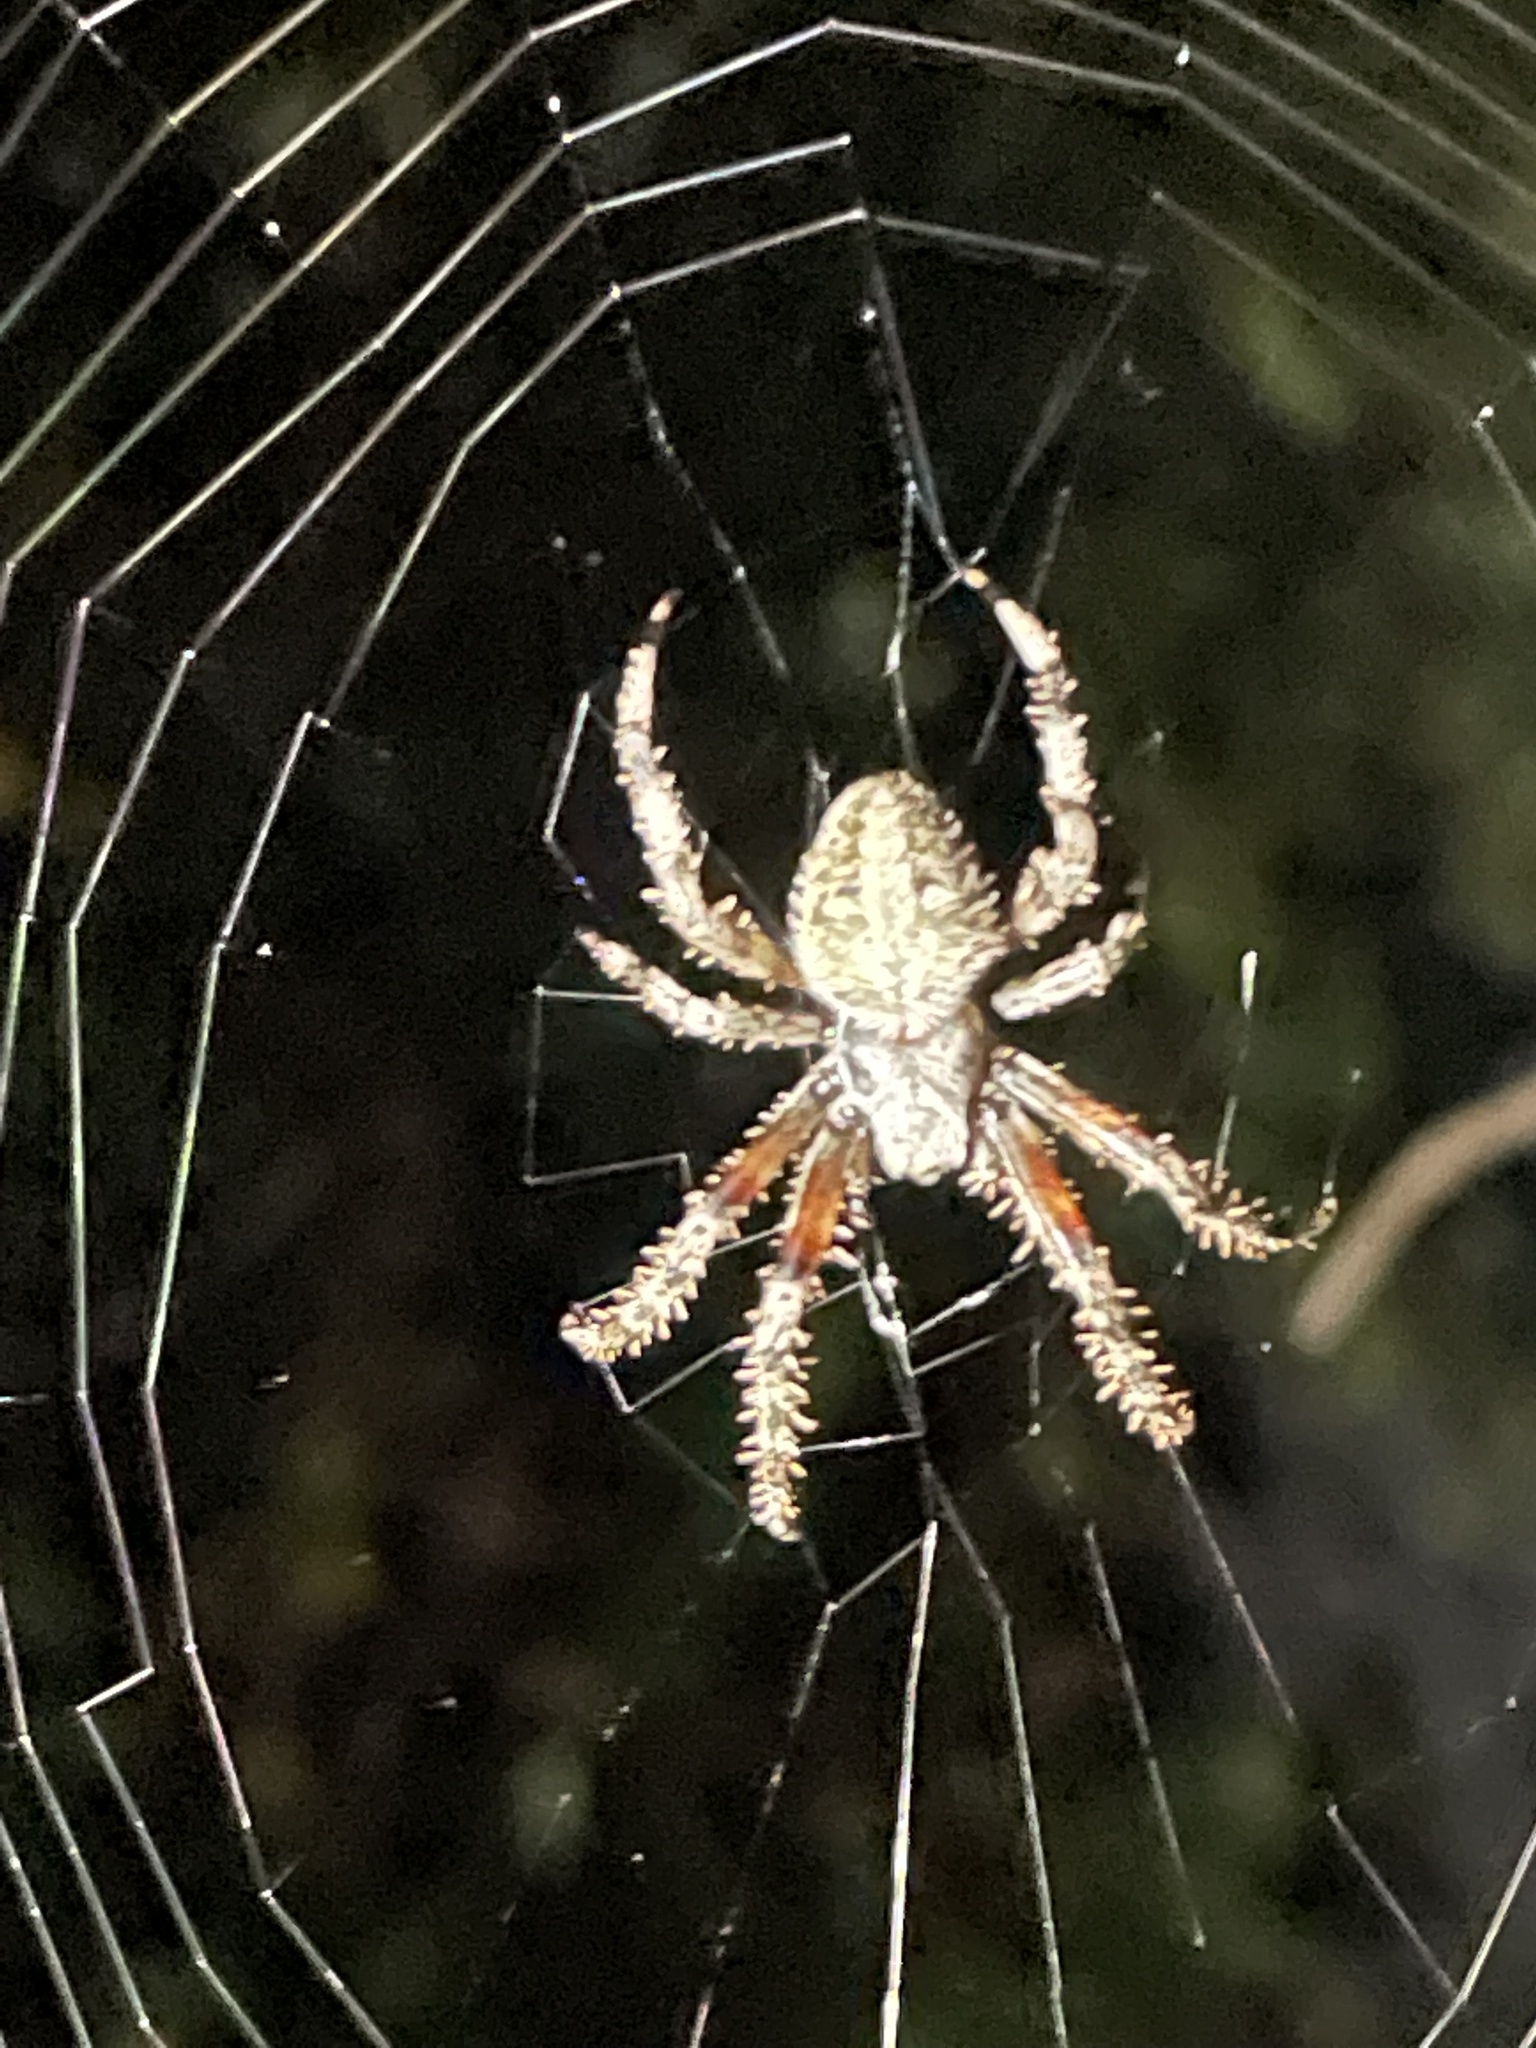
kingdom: Animalia
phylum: Arthropoda
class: Arachnida
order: Araneae
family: Araneidae
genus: Neoscona
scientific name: Neoscona crucifera
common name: Spotted orbweaver
